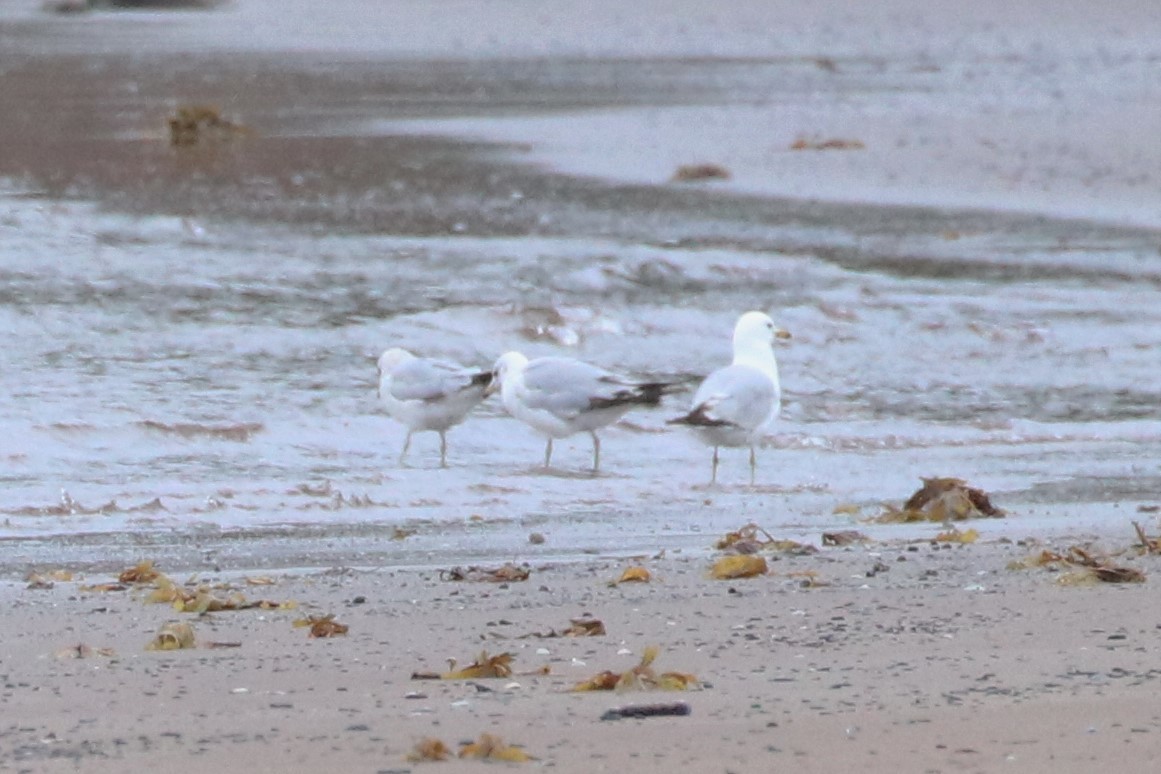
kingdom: Animalia
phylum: Chordata
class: Aves
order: Charadriiformes
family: Laridae
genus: Larus
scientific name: Larus delawarensis
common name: Ring-billed gull
